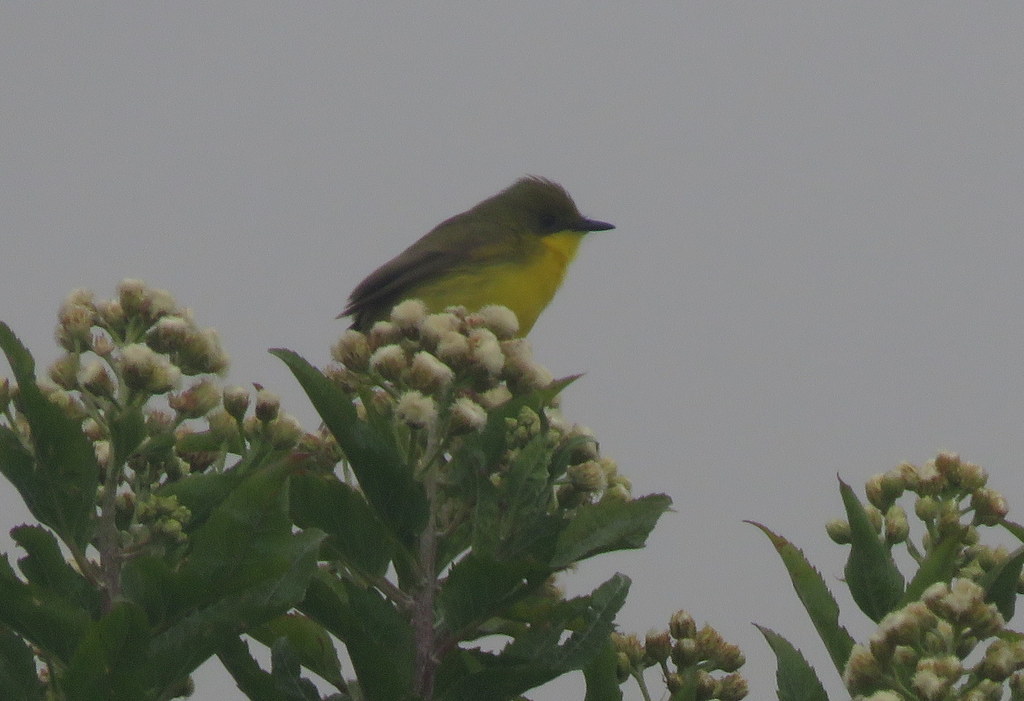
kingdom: Animalia
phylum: Chordata
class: Aves
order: Passeriformes
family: Tyrannidae
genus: Pseudocolopteryx
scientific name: Pseudocolopteryx acutipennis
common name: Subtropical doradito
